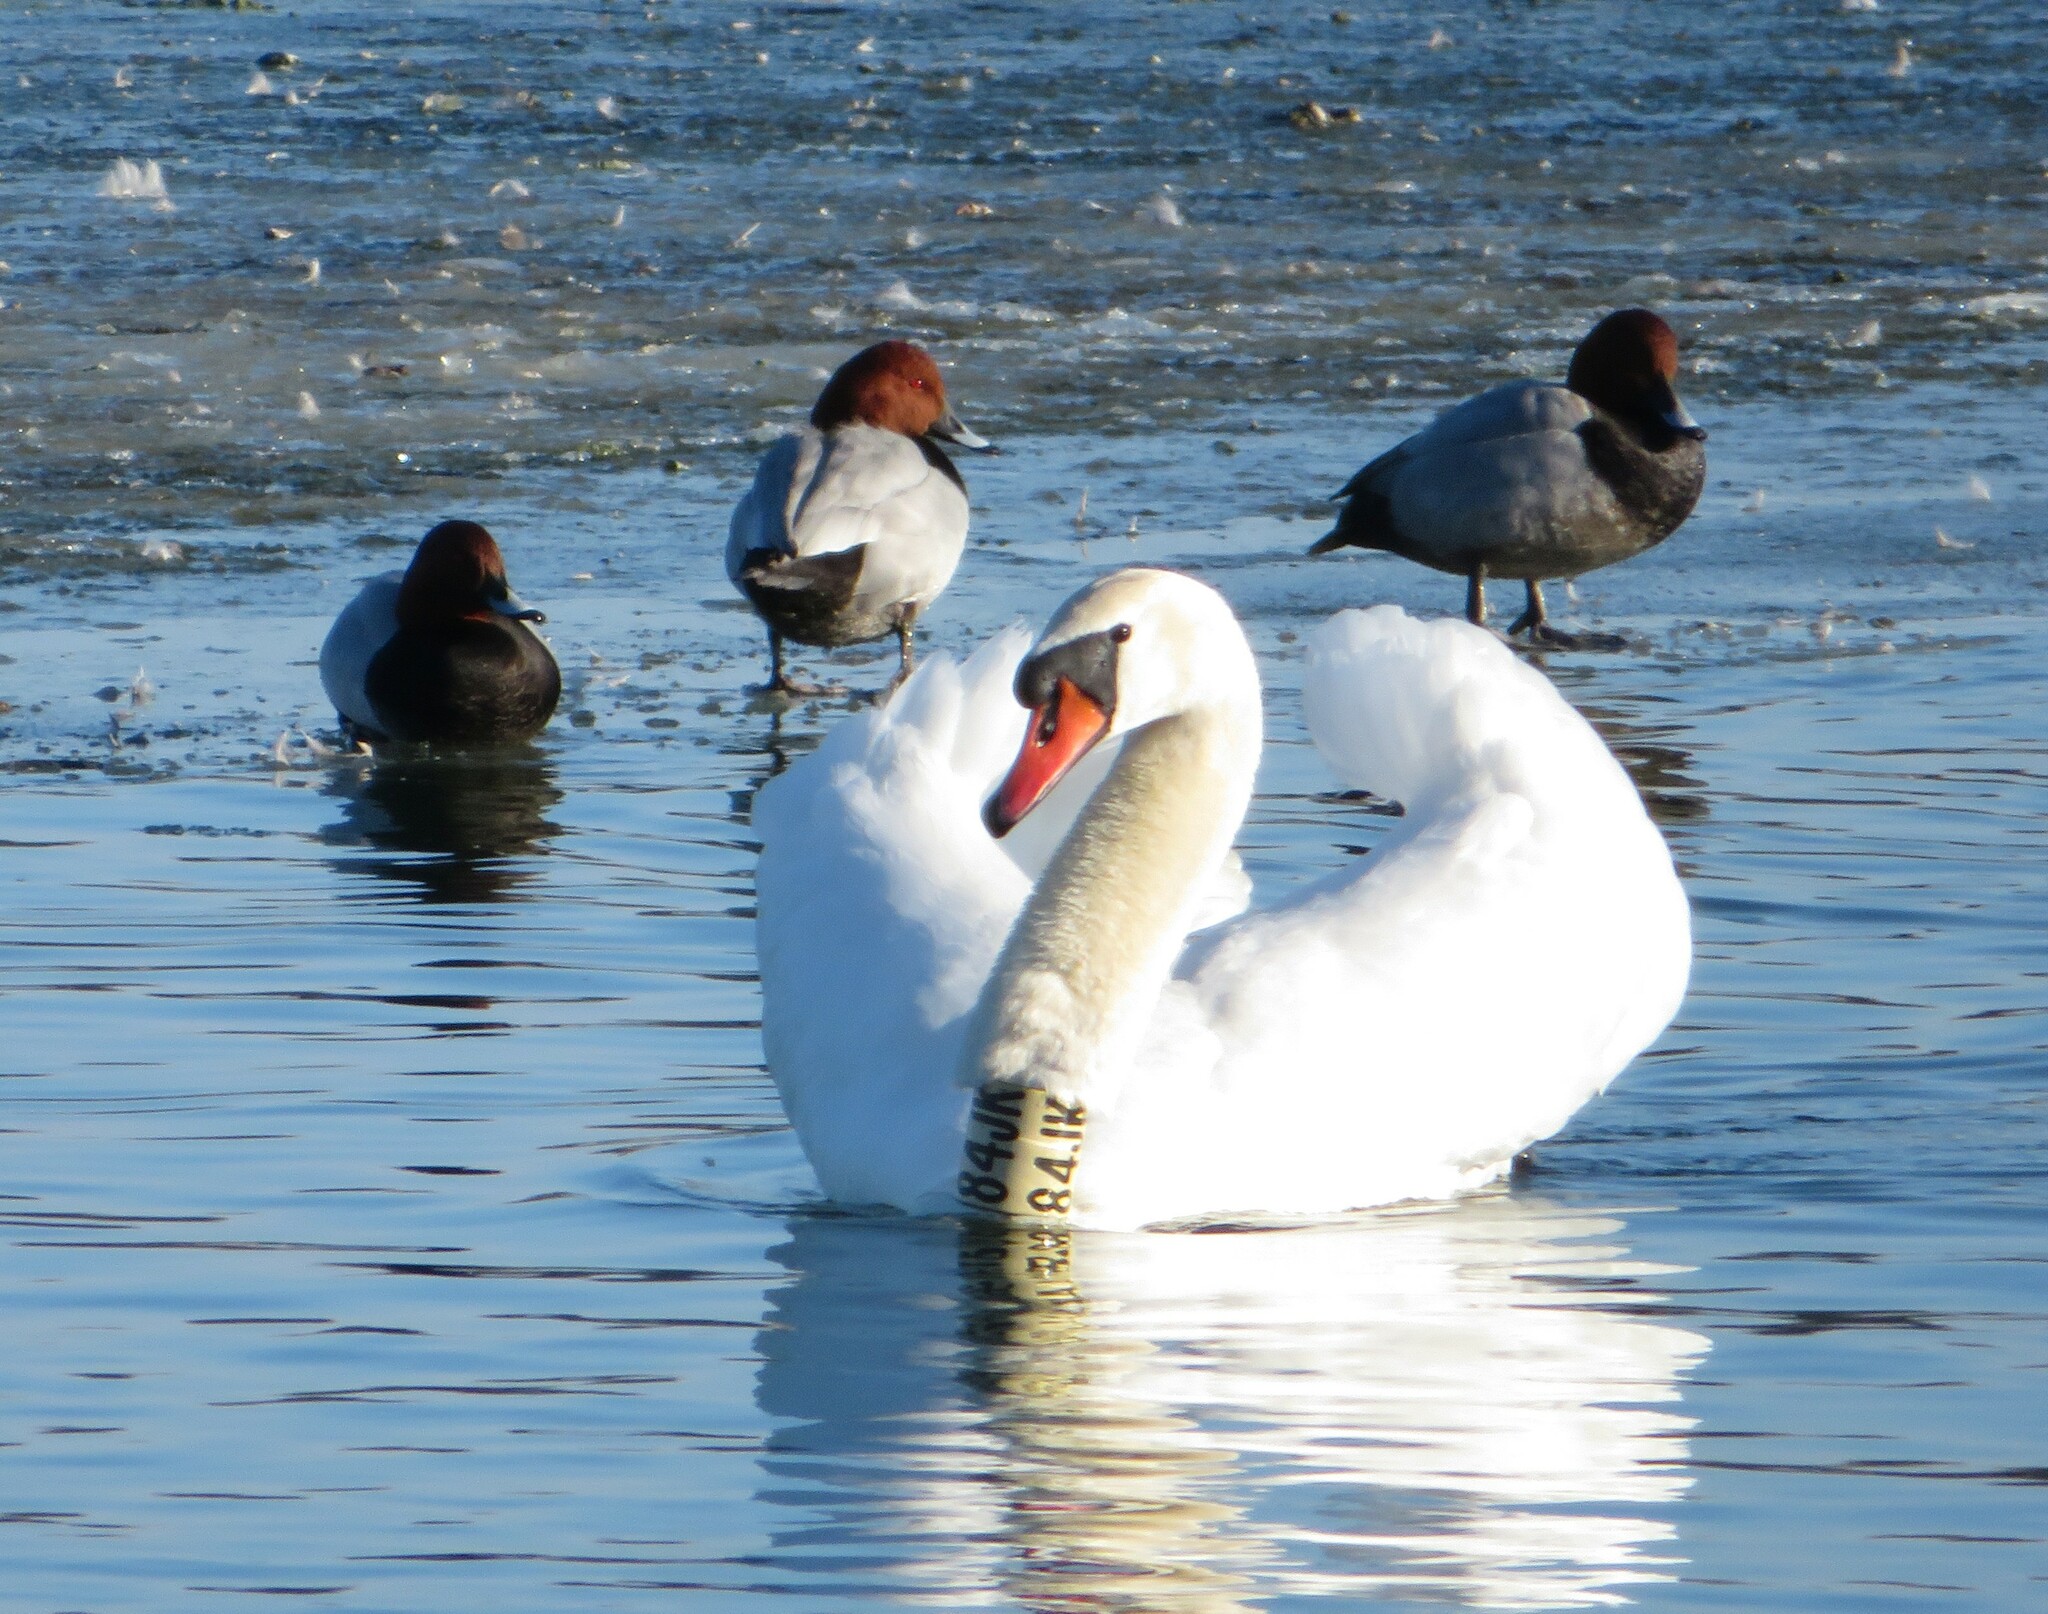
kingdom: Animalia
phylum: Chordata
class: Aves
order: Anseriformes
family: Anatidae
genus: Cygnus
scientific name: Cygnus olor
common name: Mute swan
